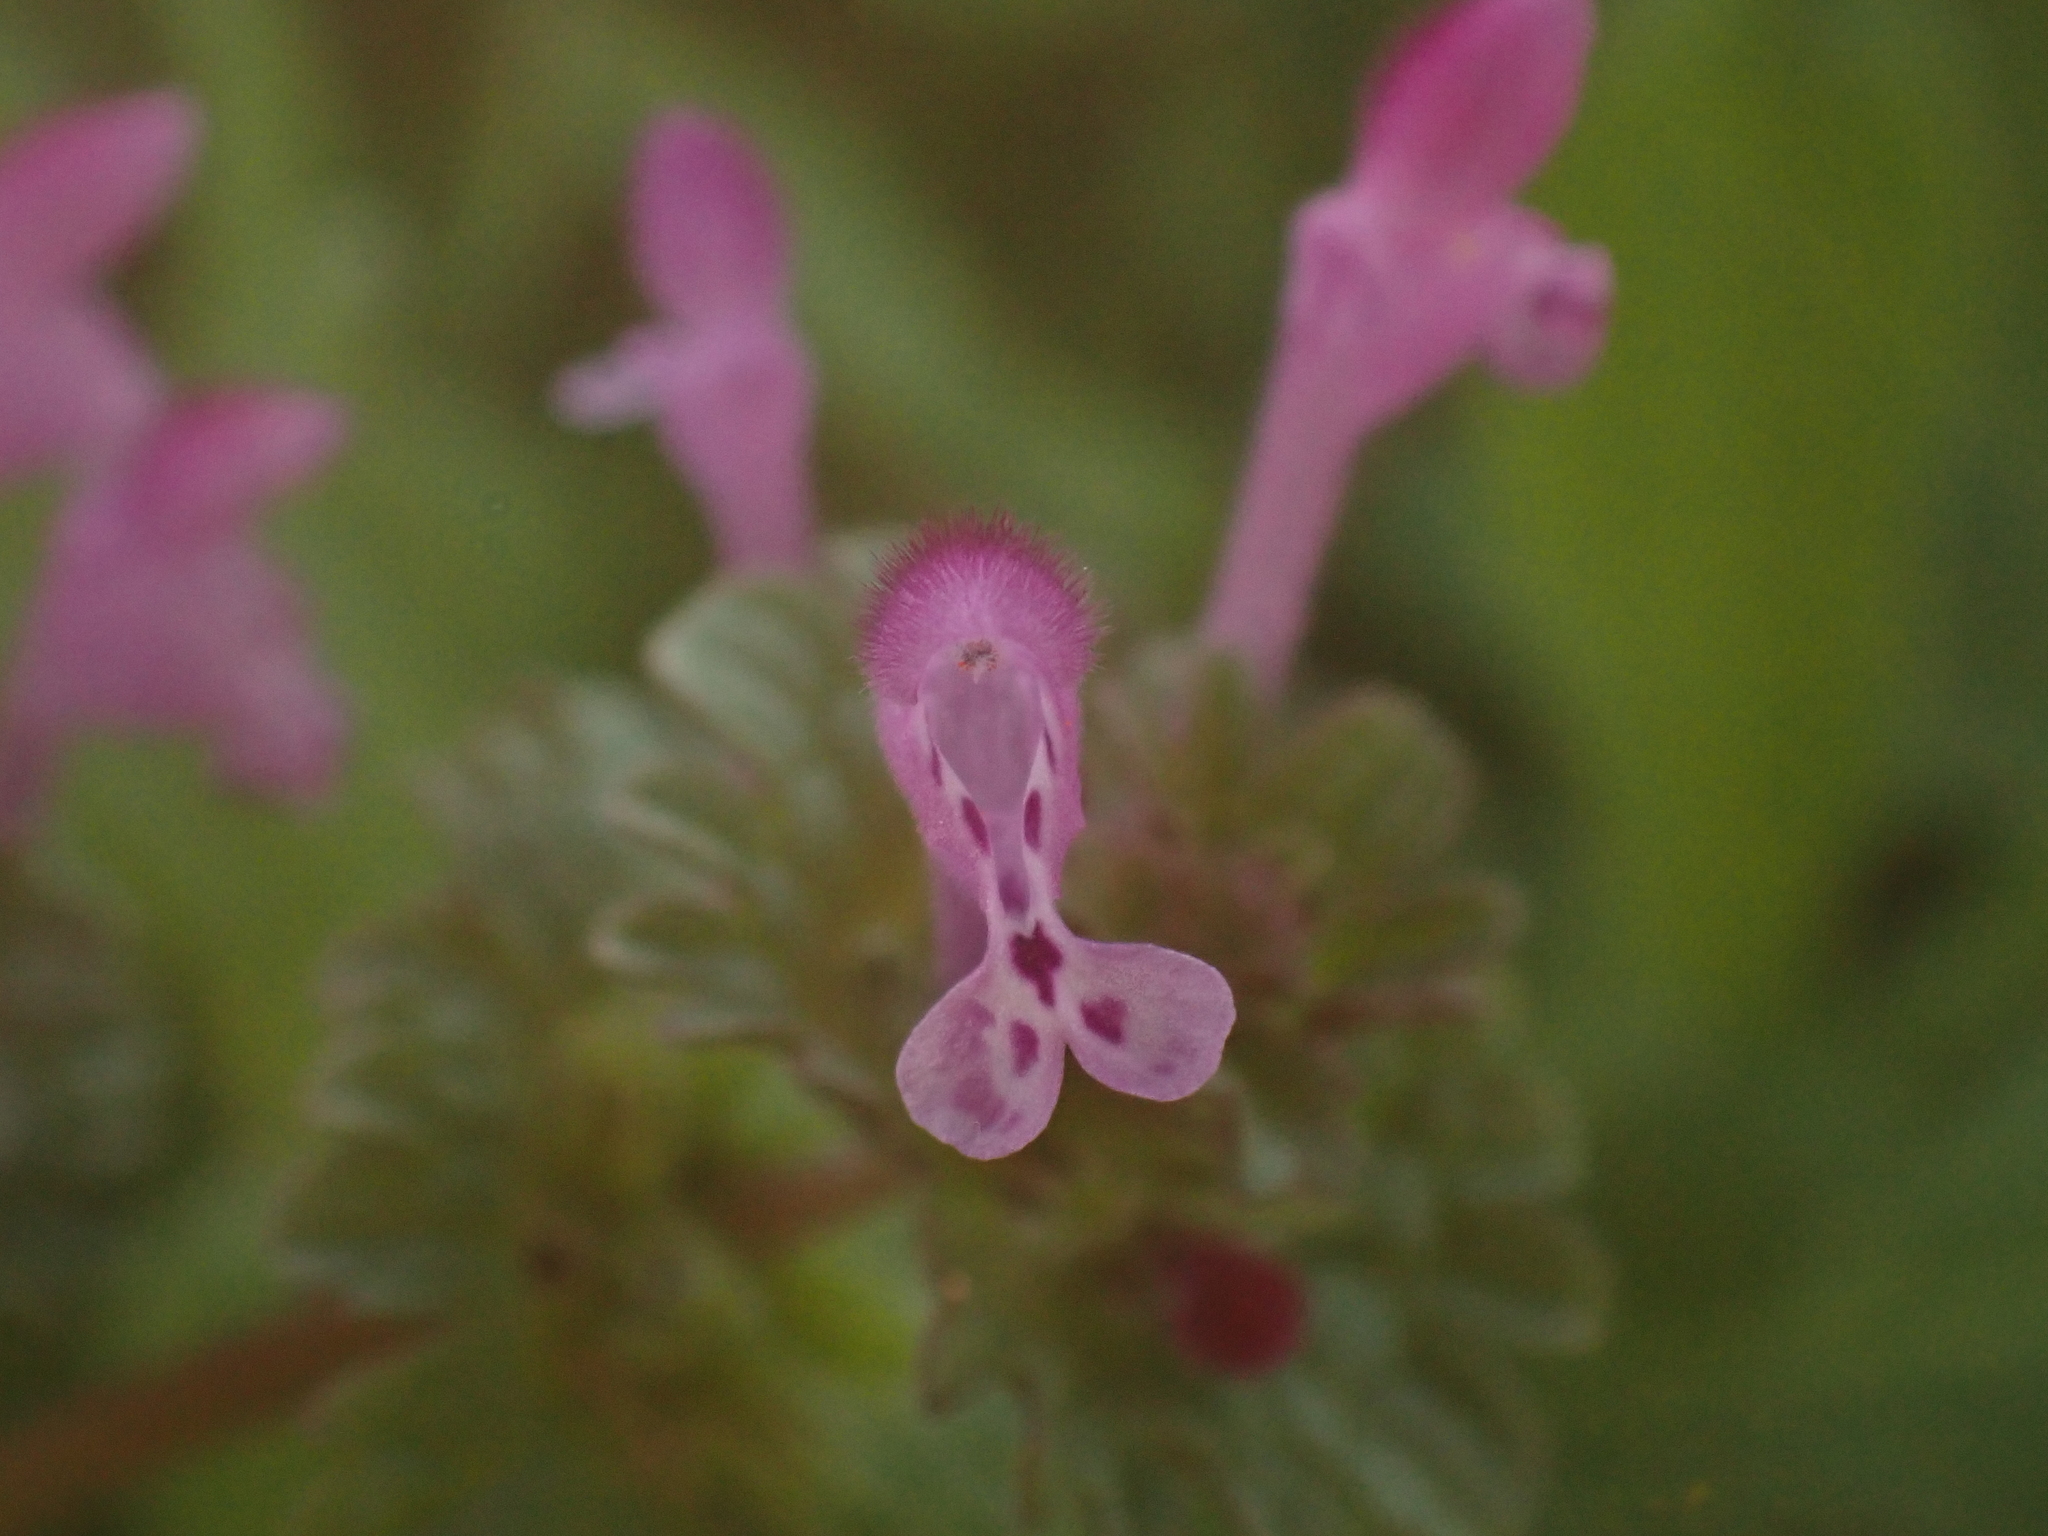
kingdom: Plantae
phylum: Tracheophyta
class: Magnoliopsida
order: Lamiales
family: Lamiaceae
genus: Lamium
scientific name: Lamium amplexicaule
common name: Henbit dead-nettle
